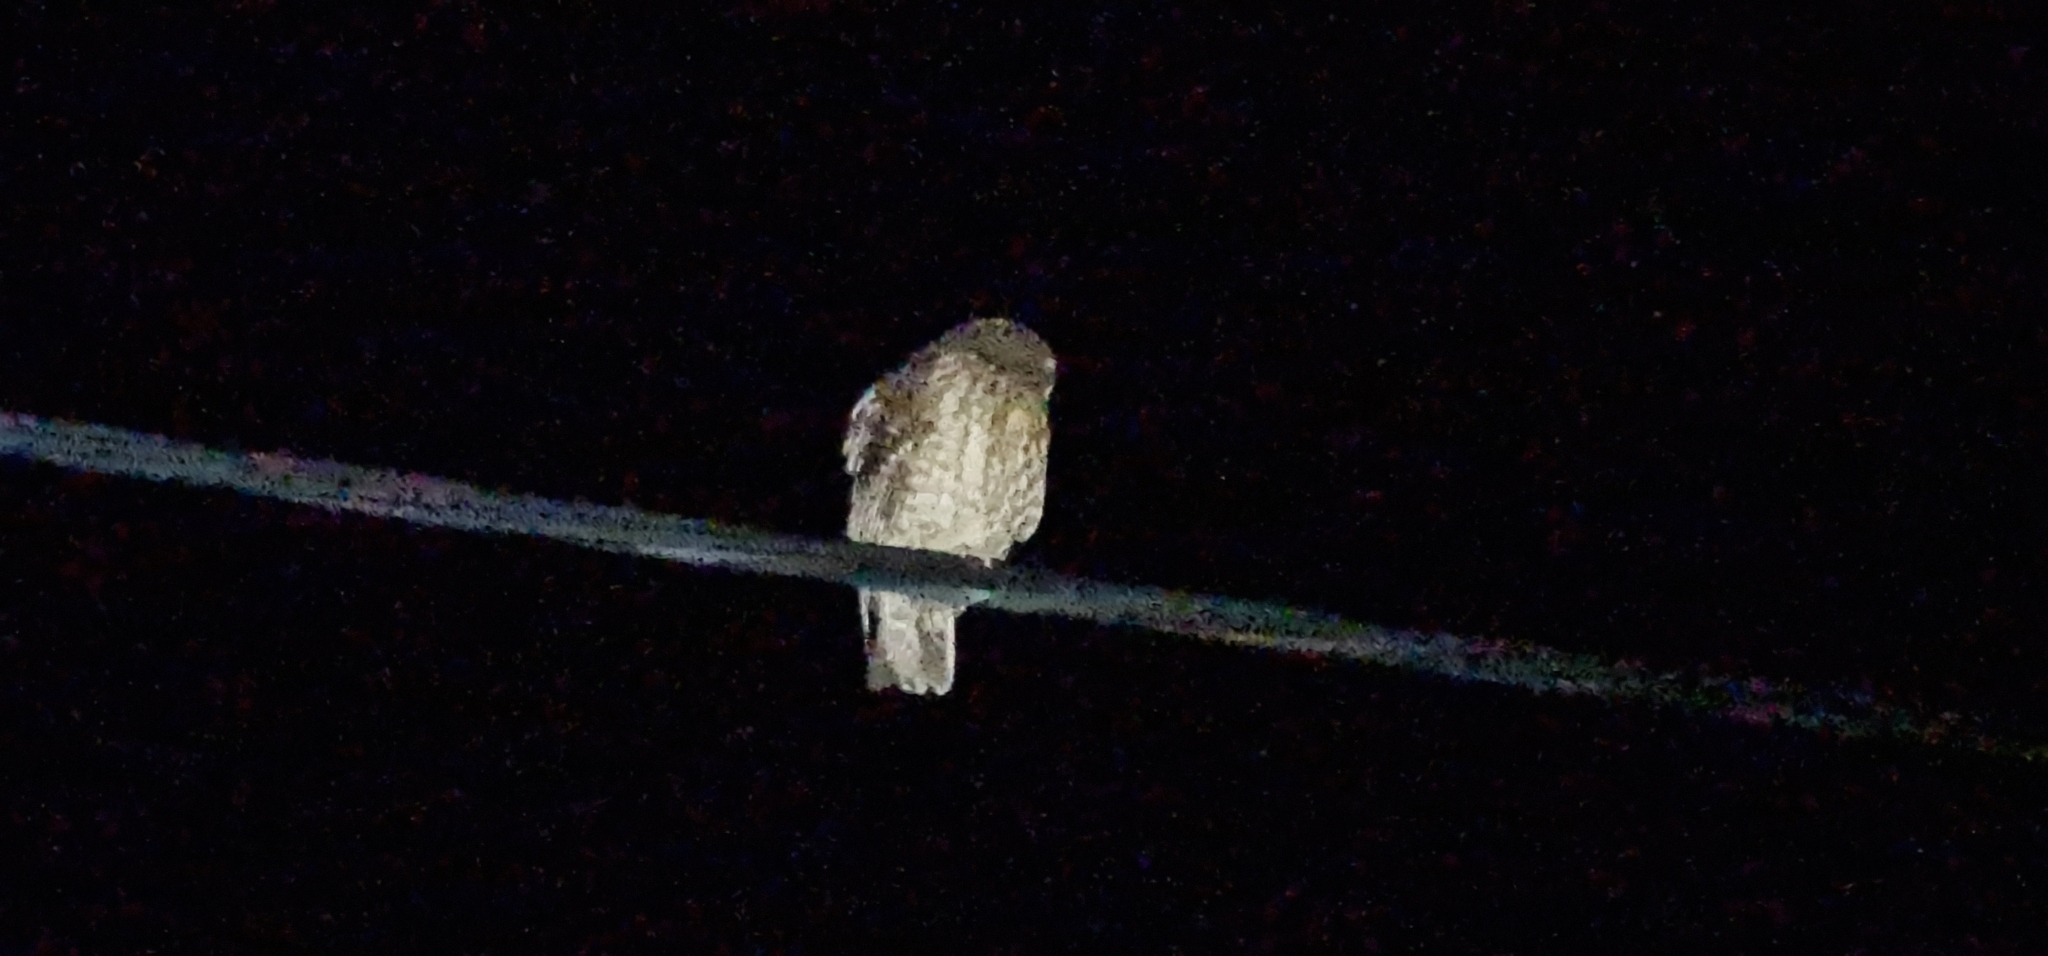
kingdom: Animalia
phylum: Chordata
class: Aves
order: Strigiformes
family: Strigidae
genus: Ninox
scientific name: Ninox boobook
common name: Southern boobook
